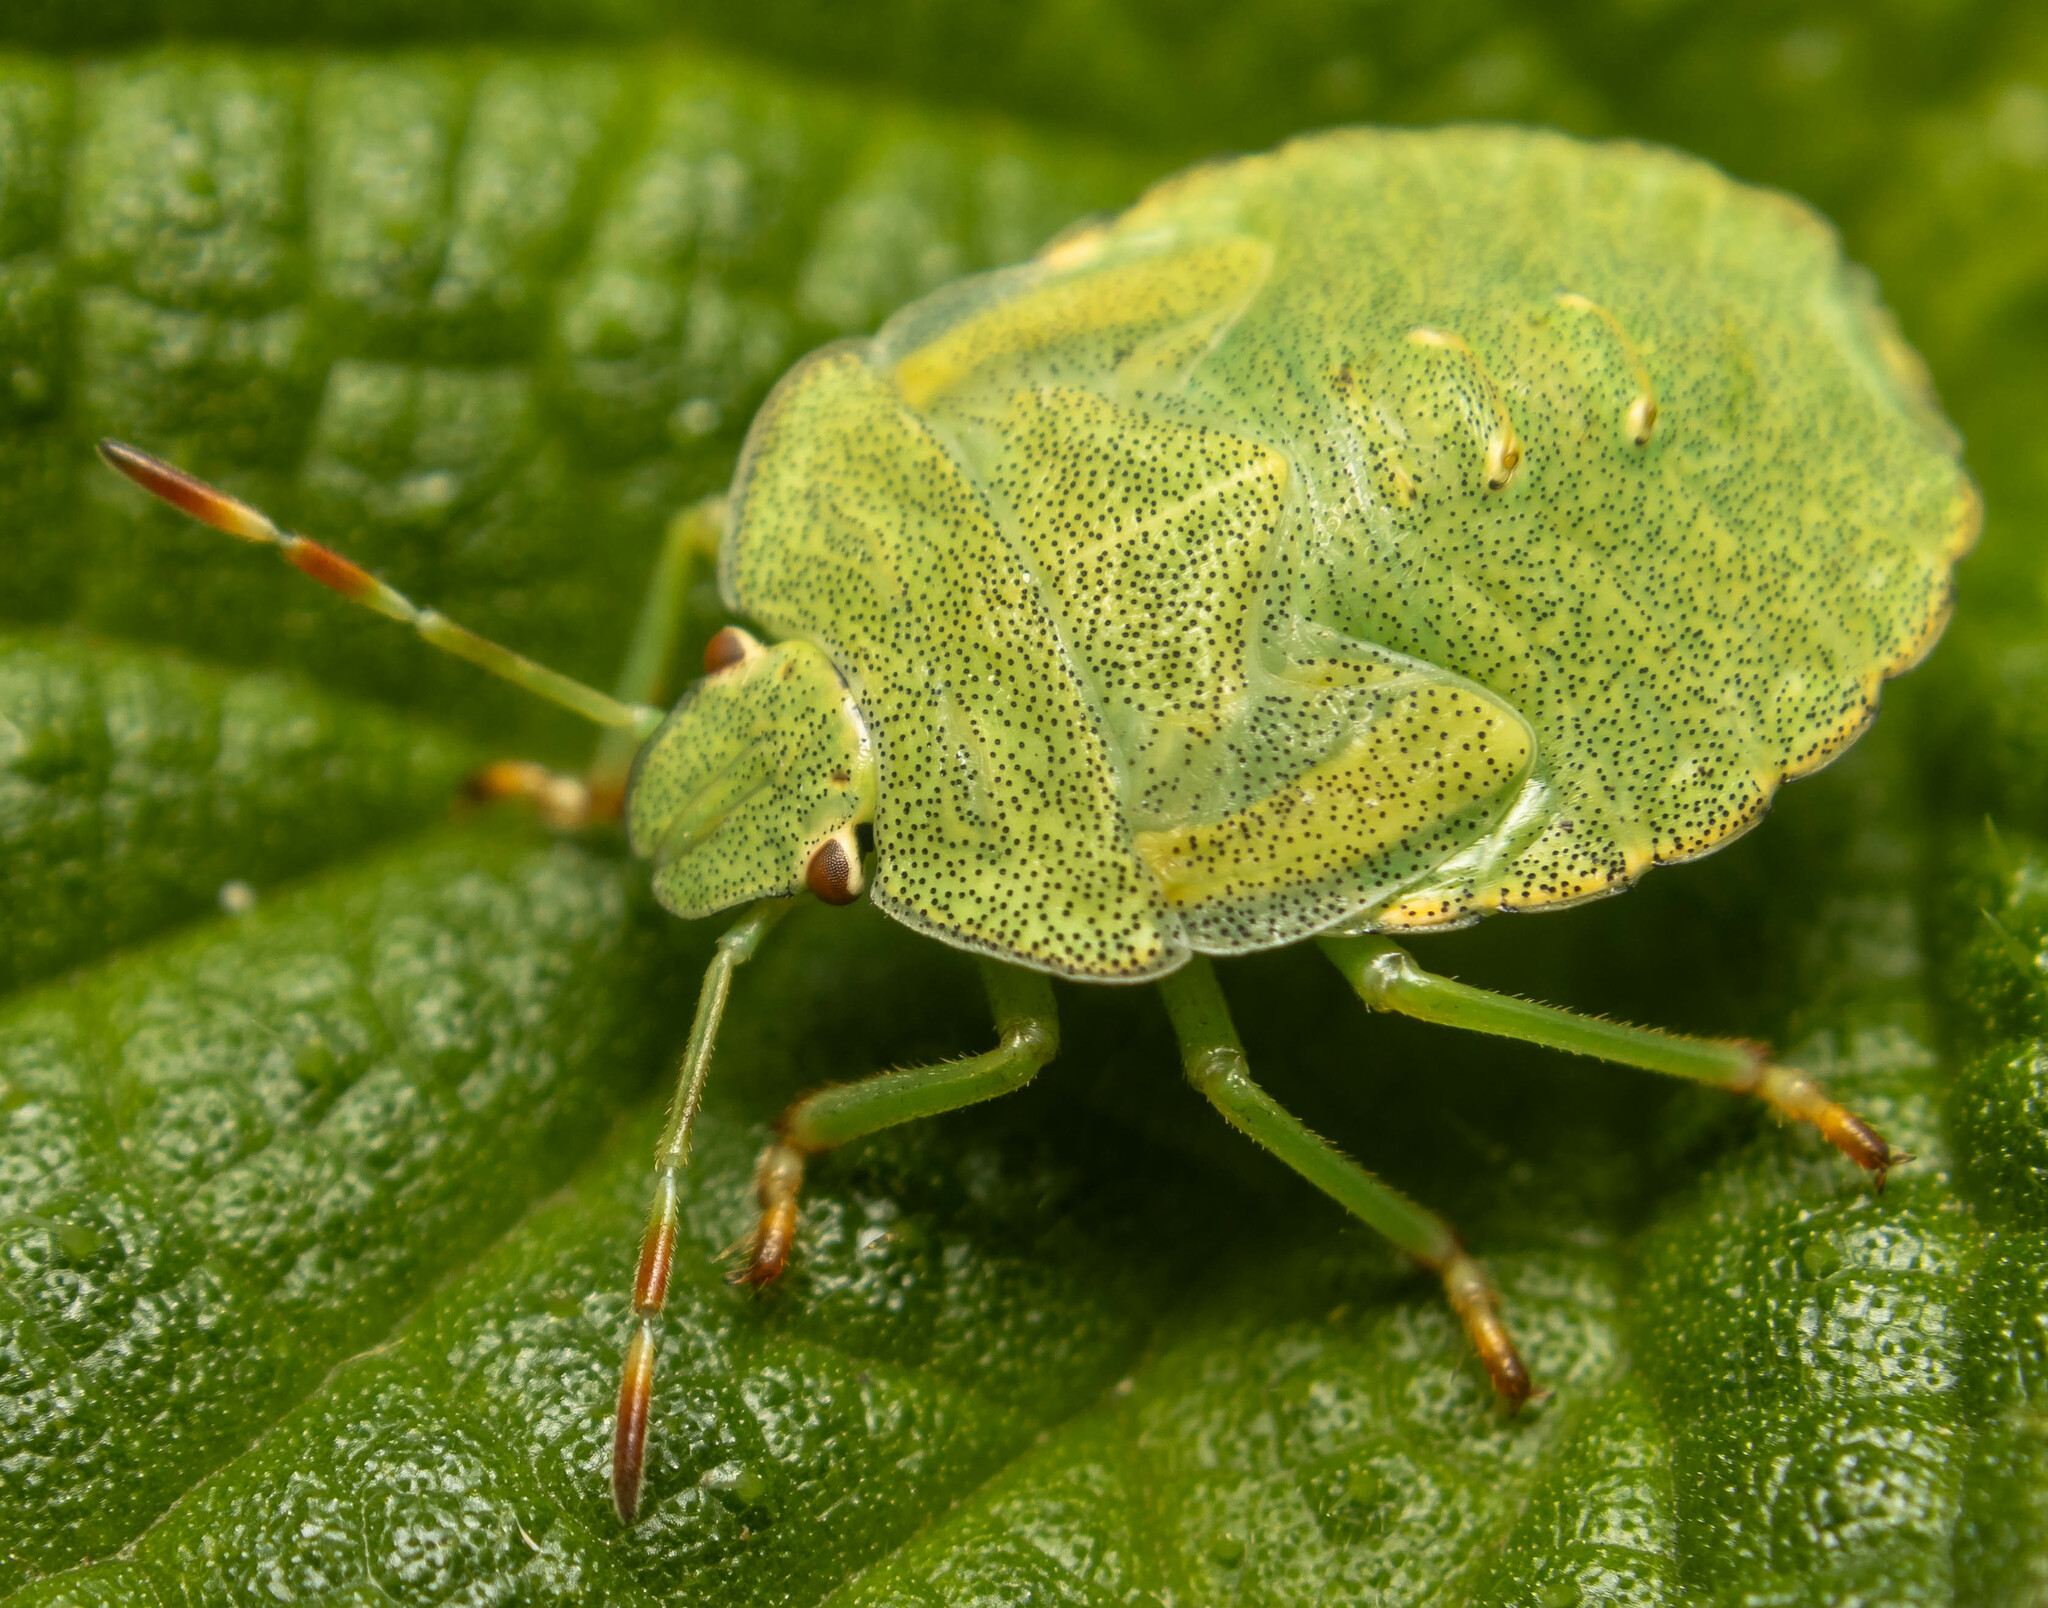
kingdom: Animalia
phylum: Arthropoda
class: Insecta
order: Hemiptera
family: Pentatomidae
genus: Palomena
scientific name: Palomena prasina
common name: Green shieldbug
